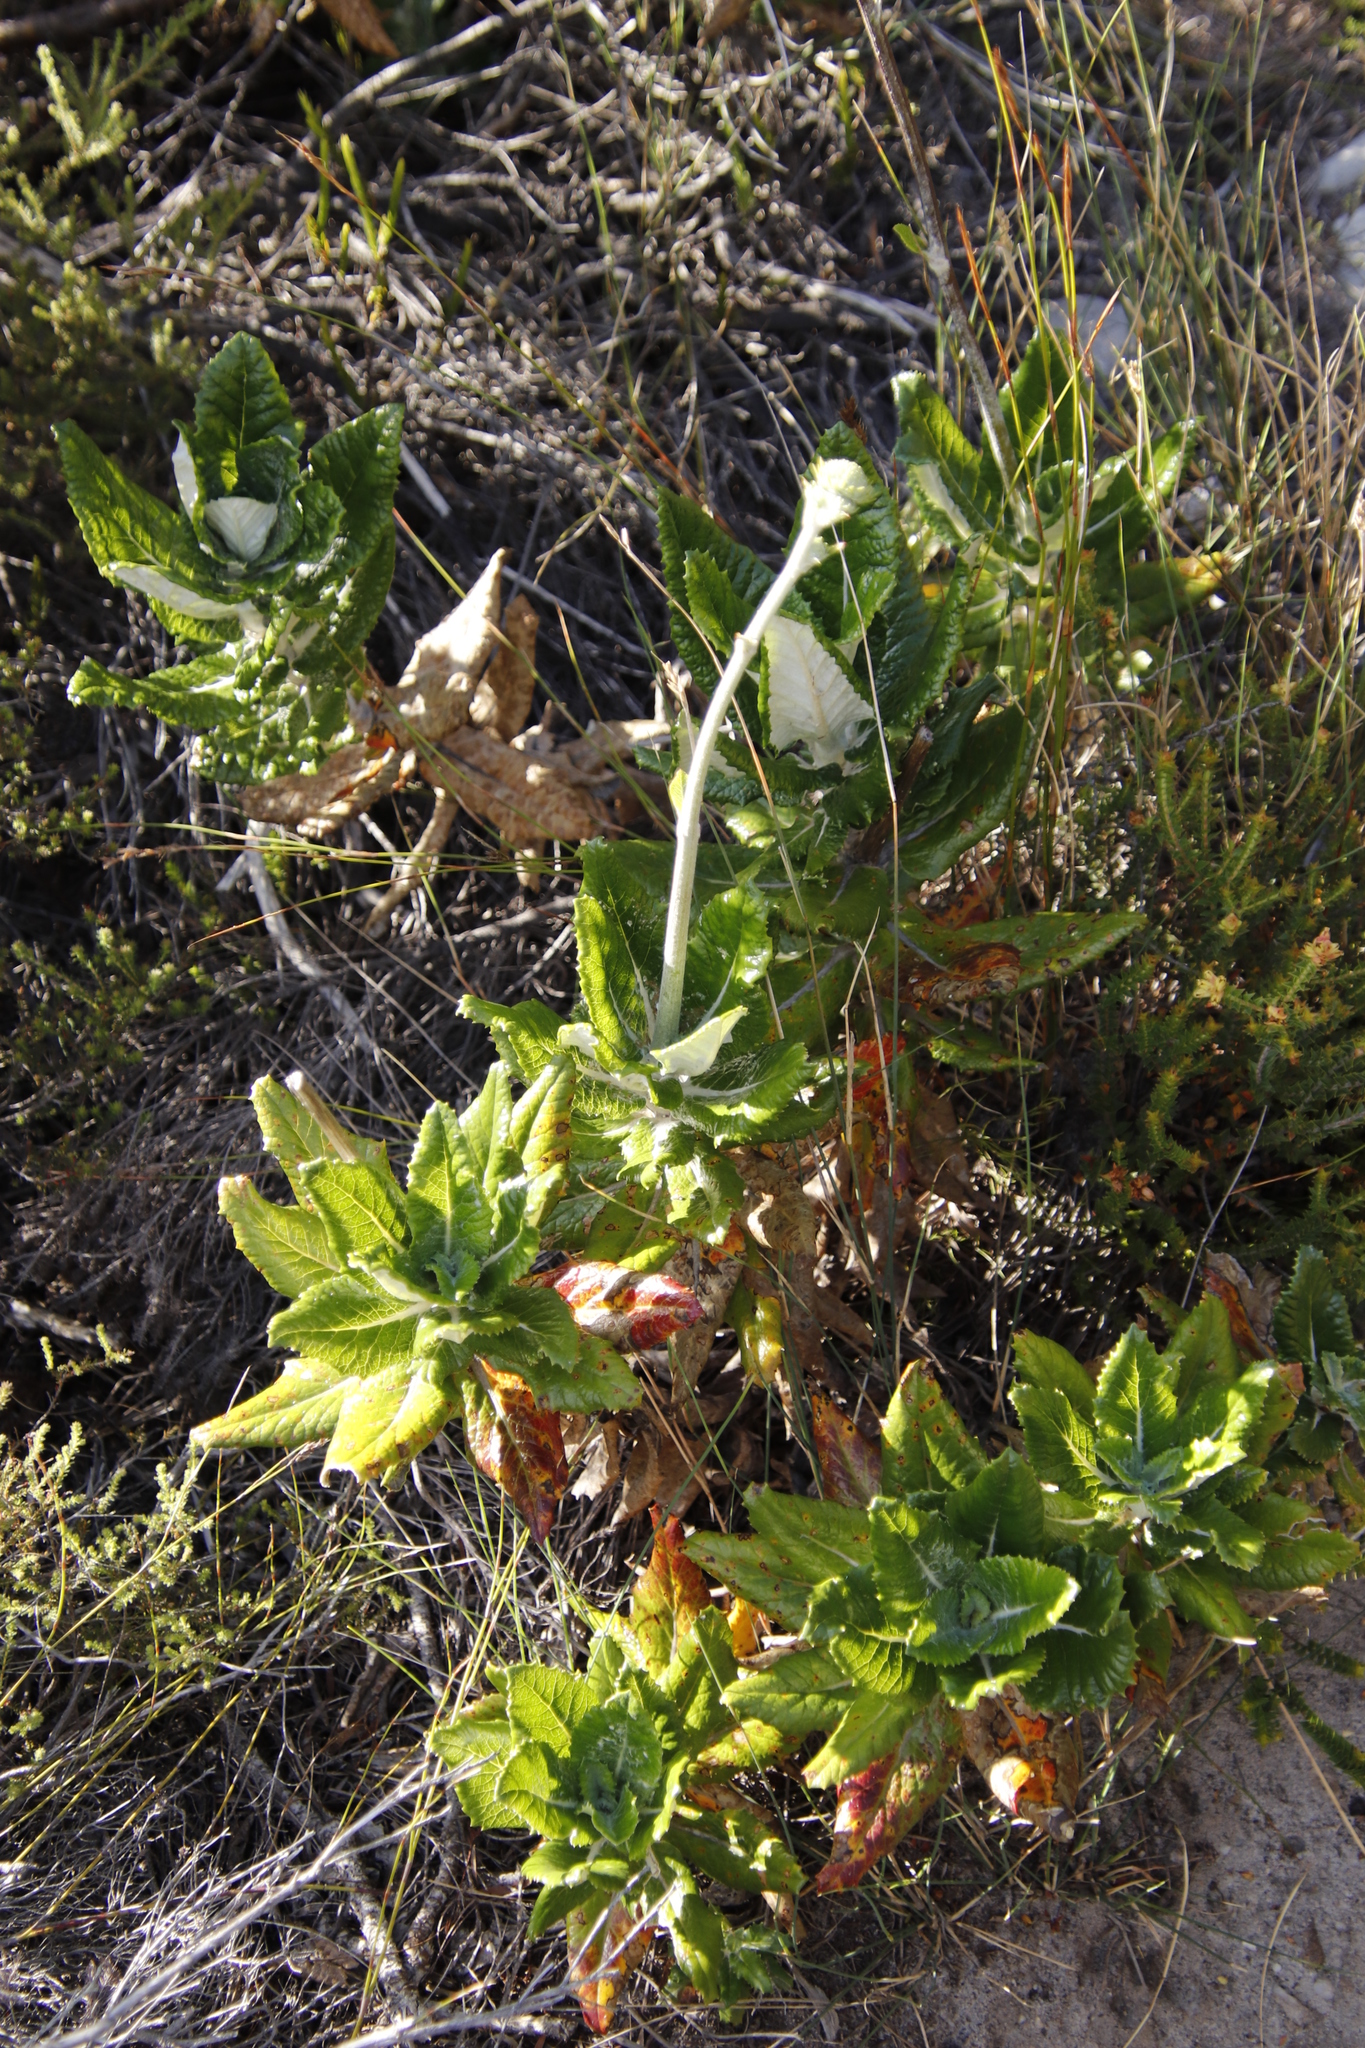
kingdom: Plantae
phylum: Tracheophyta
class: Magnoliopsida
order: Apiales
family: Apiaceae
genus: Hermas
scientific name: Hermas villosa
